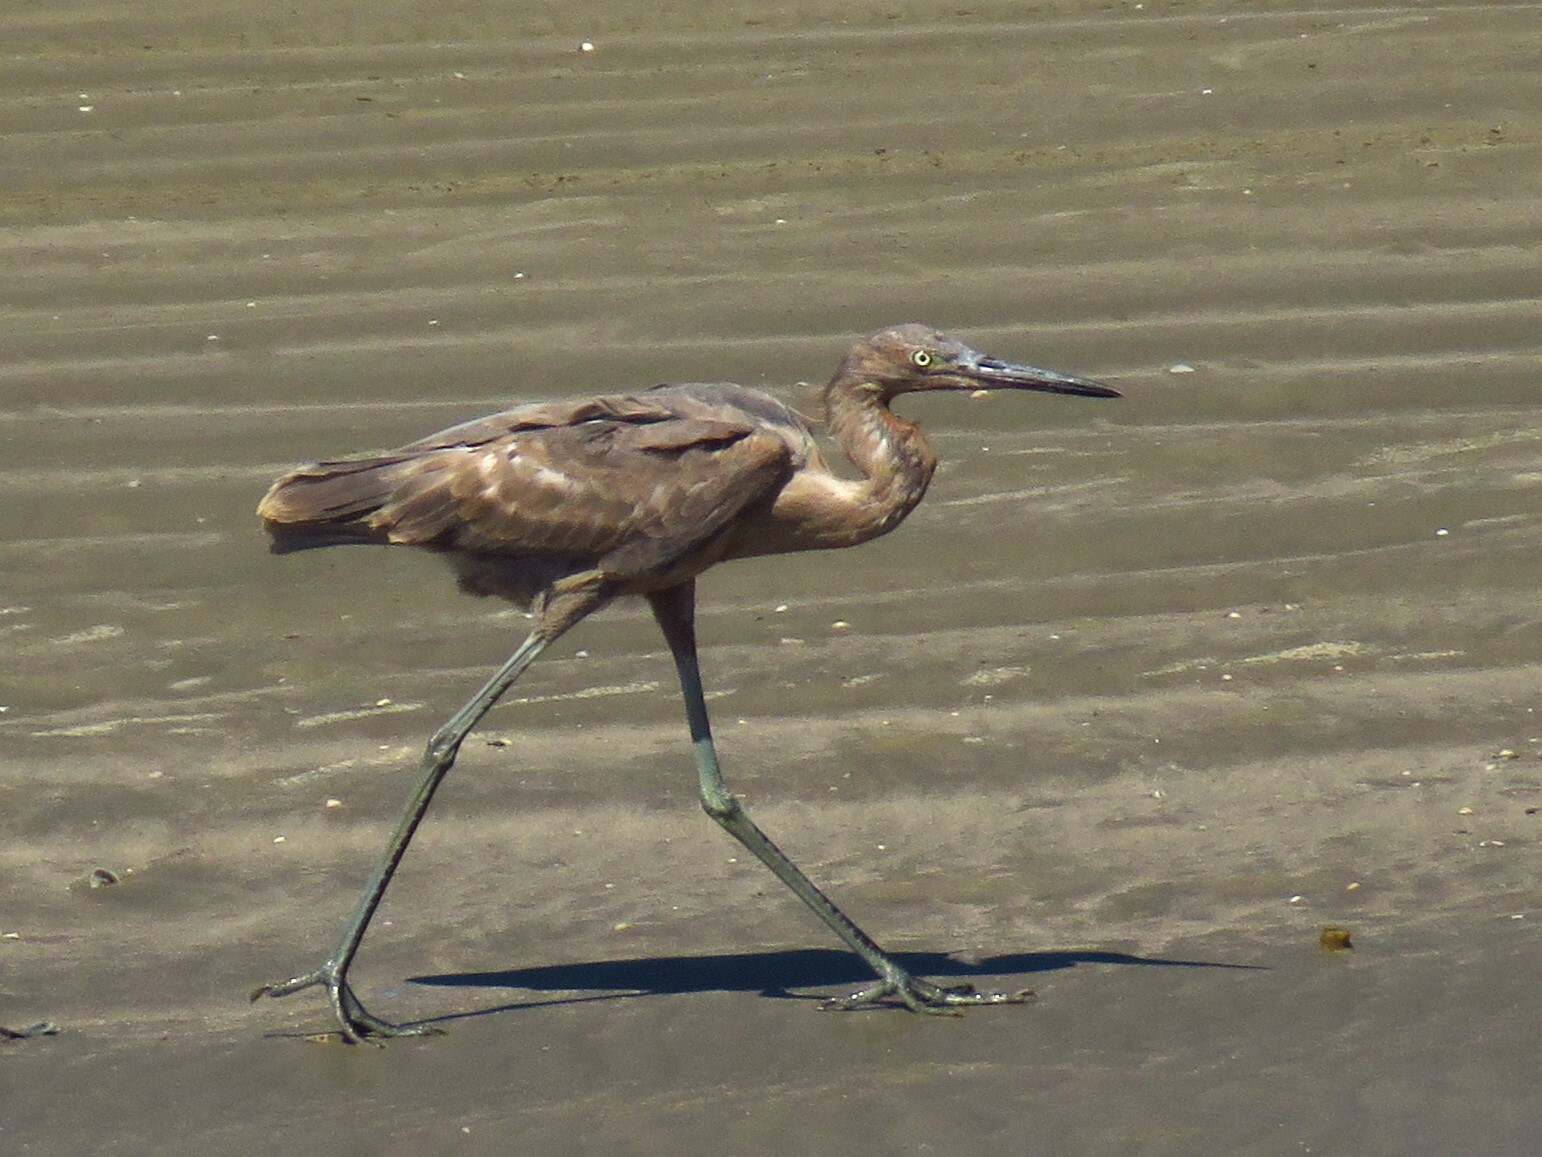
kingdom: Animalia
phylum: Chordata
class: Aves
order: Pelecaniformes
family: Ardeidae
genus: Egretta
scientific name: Egretta rufescens
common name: Reddish egret
